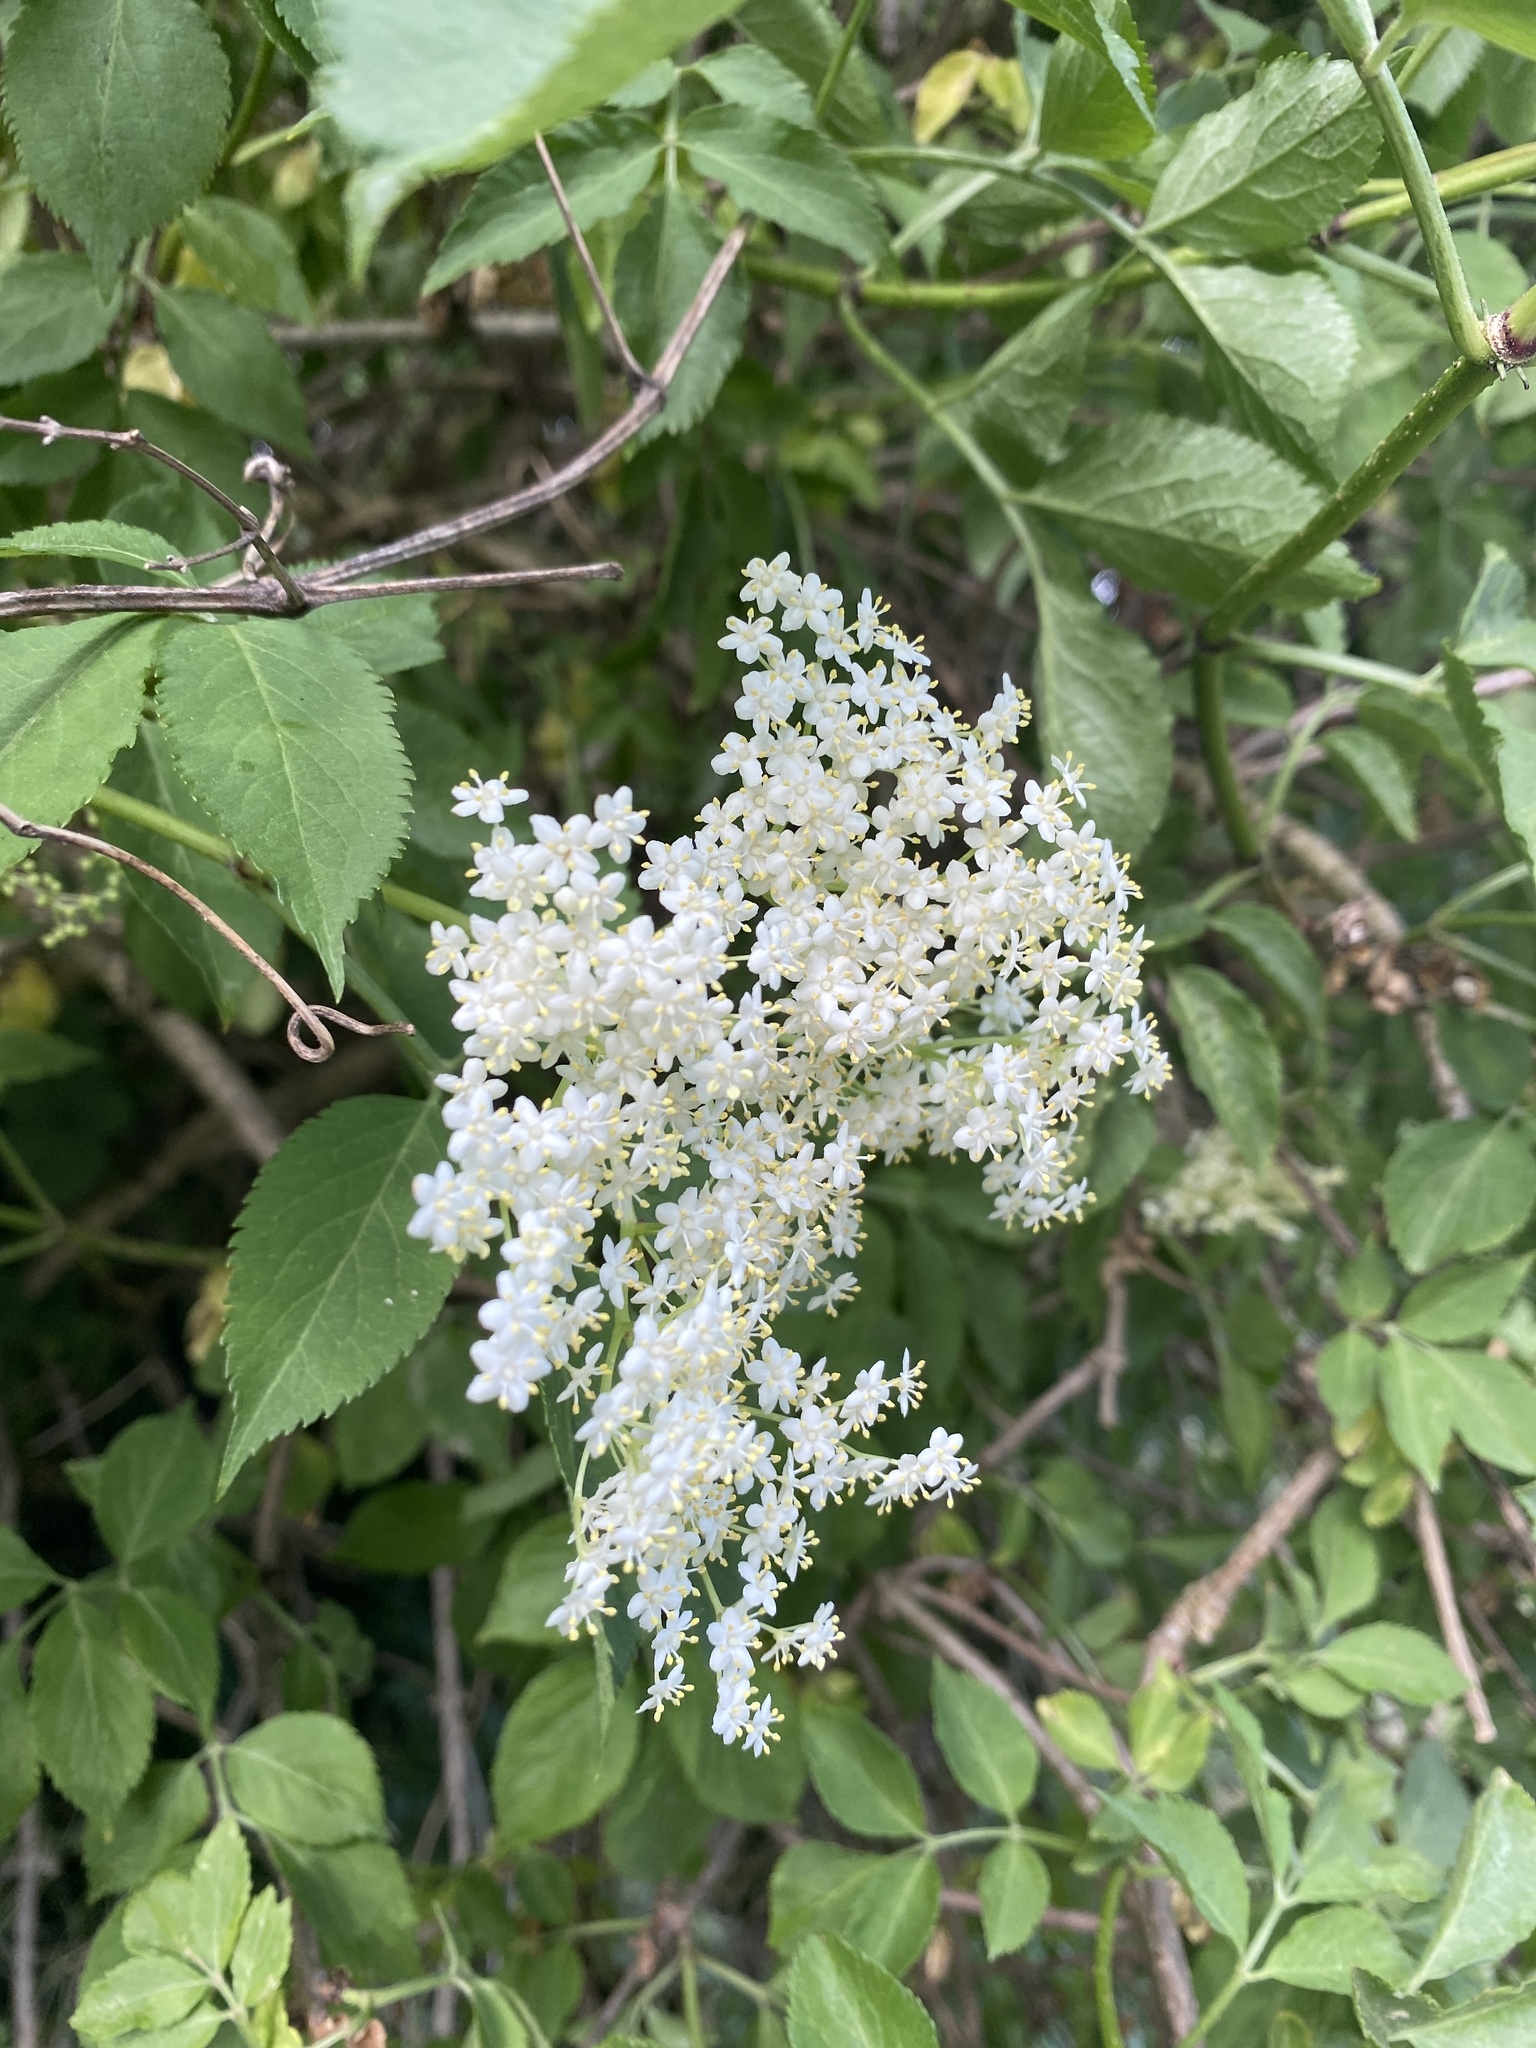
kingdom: Plantae
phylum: Tracheophyta
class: Magnoliopsida
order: Dipsacales
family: Viburnaceae
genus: Sambucus
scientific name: Sambucus nigra
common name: Elder
